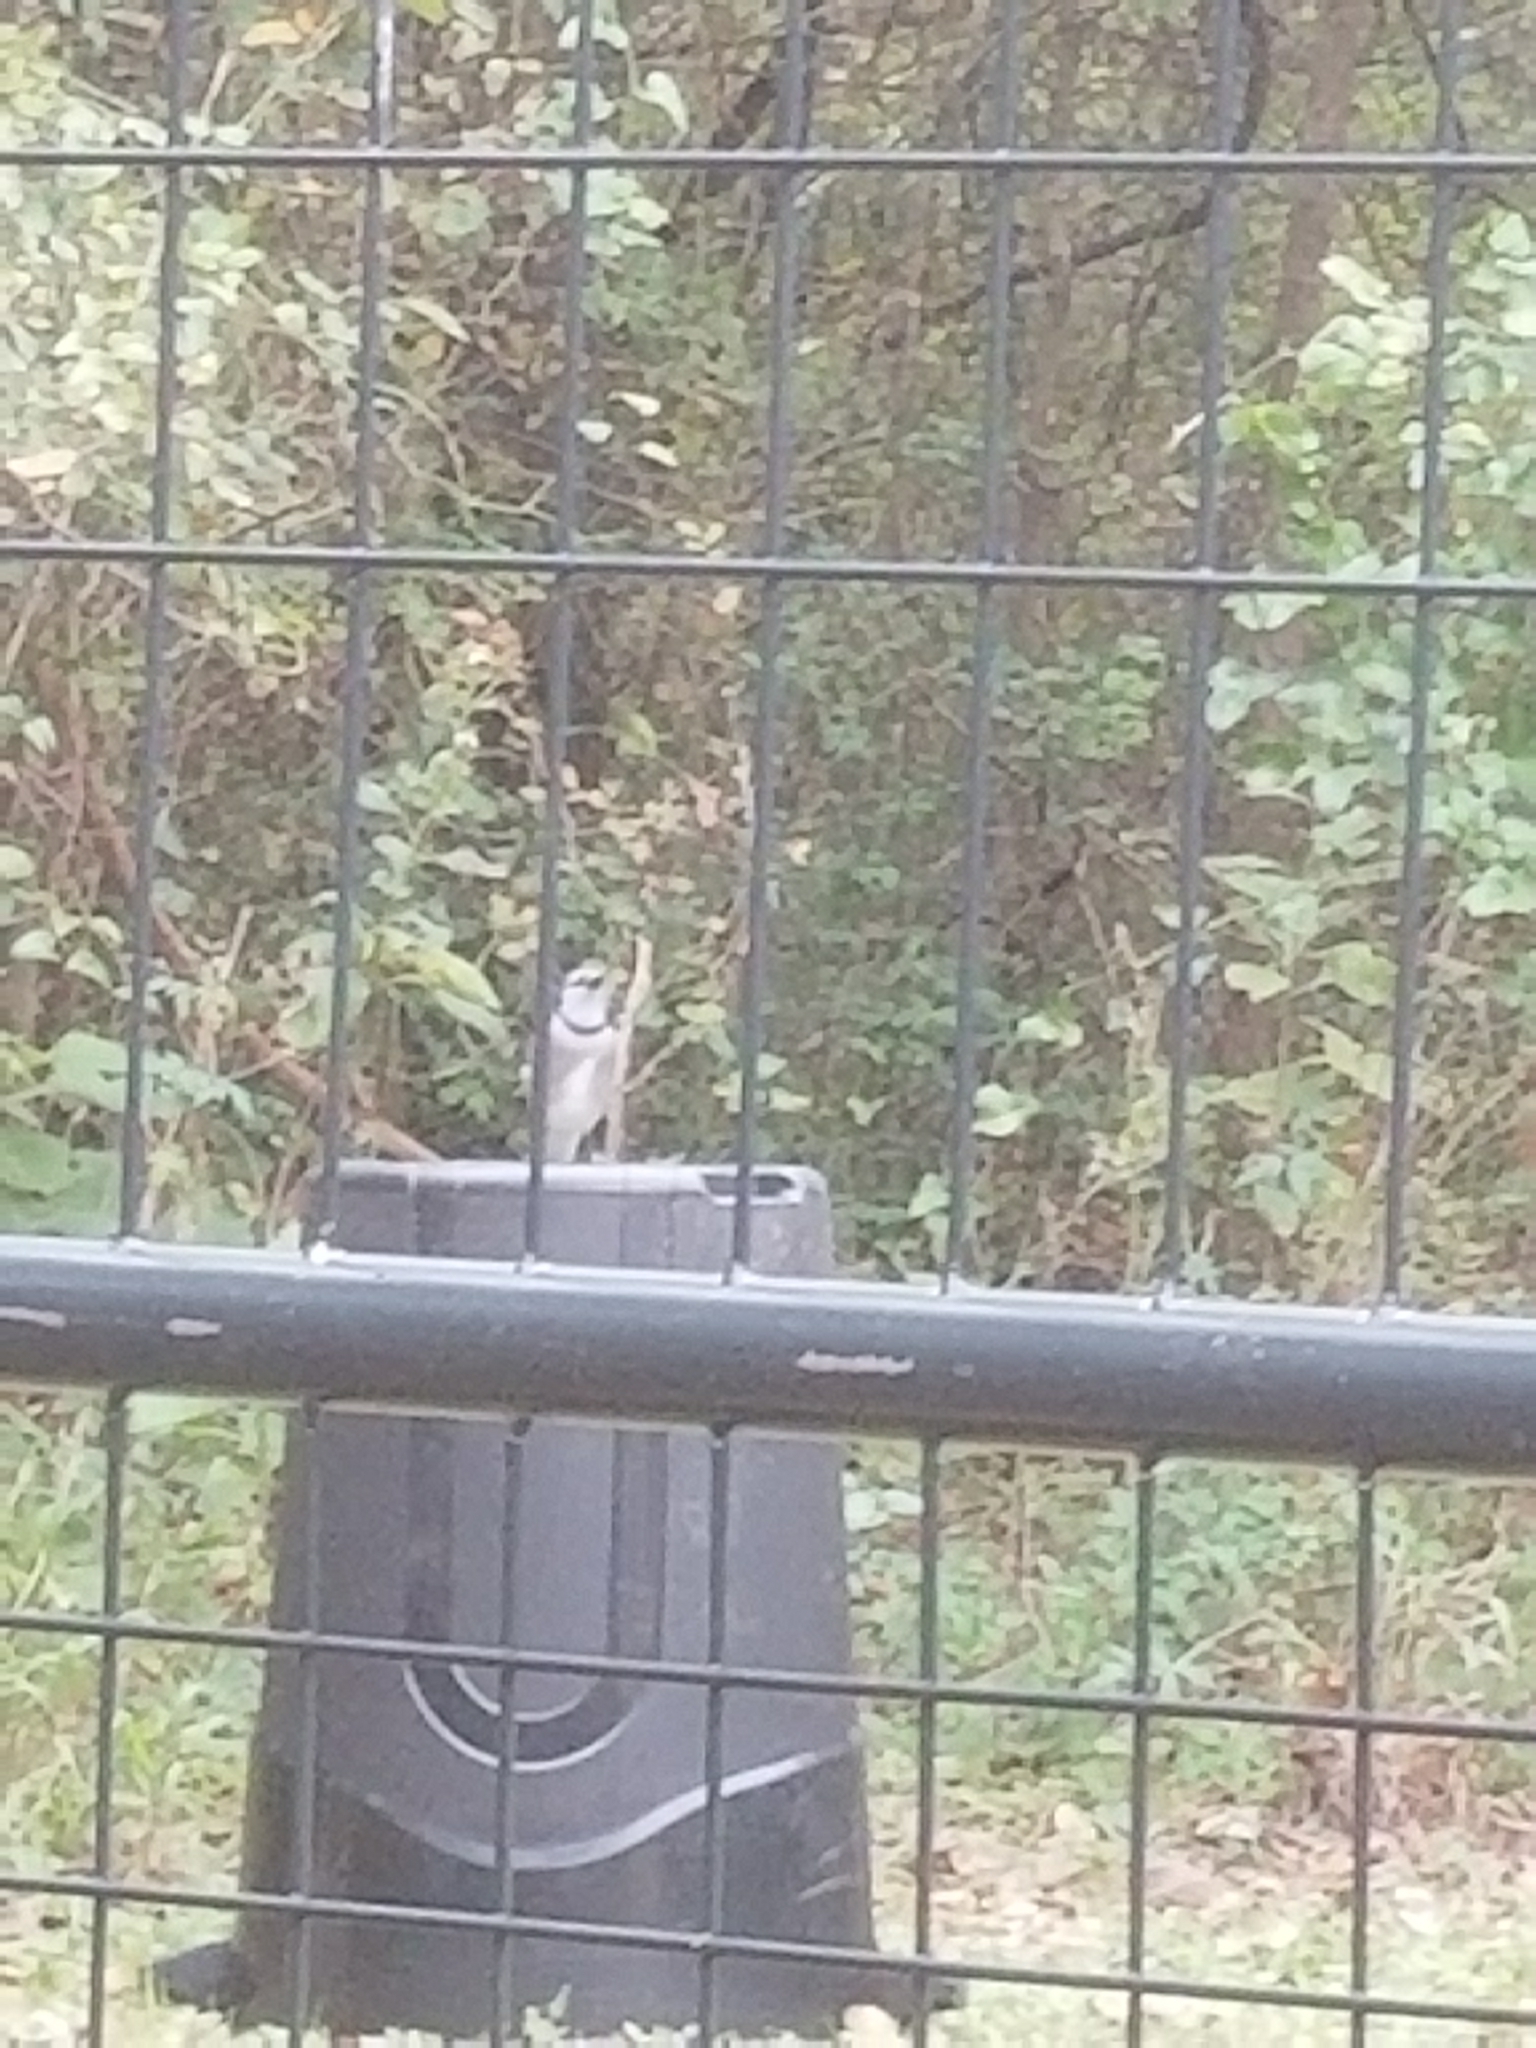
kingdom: Animalia
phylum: Chordata
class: Aves
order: Passeriformes
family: Corvidae
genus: Cyanocitta
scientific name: Cyanocitta cristata
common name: Blue jay
